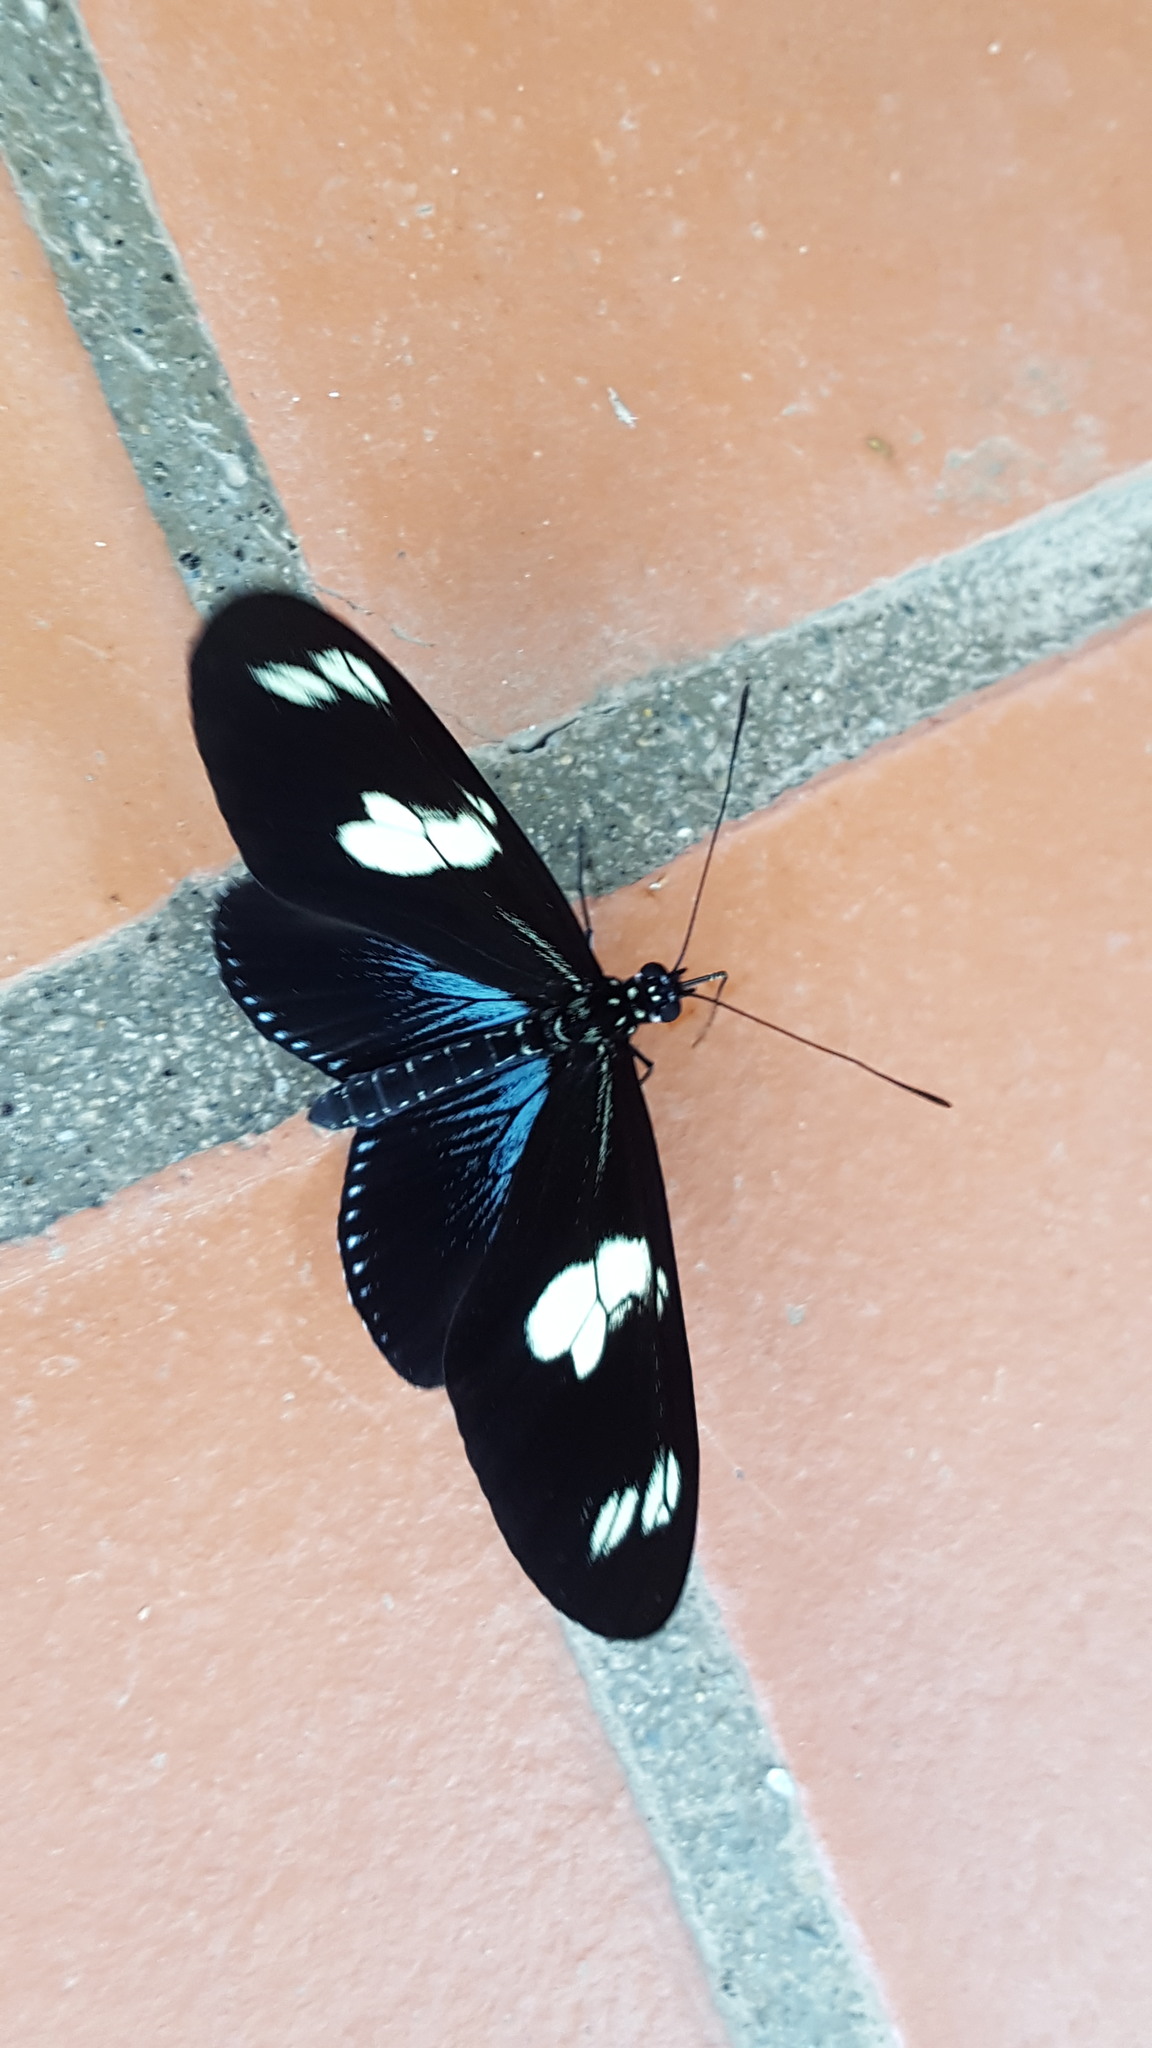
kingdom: Animalia
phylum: Arthropoda
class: Insecta
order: Lepidoptera
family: Nymphalidae
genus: Heliconius
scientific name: Heliconius doris
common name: Doris longwing
